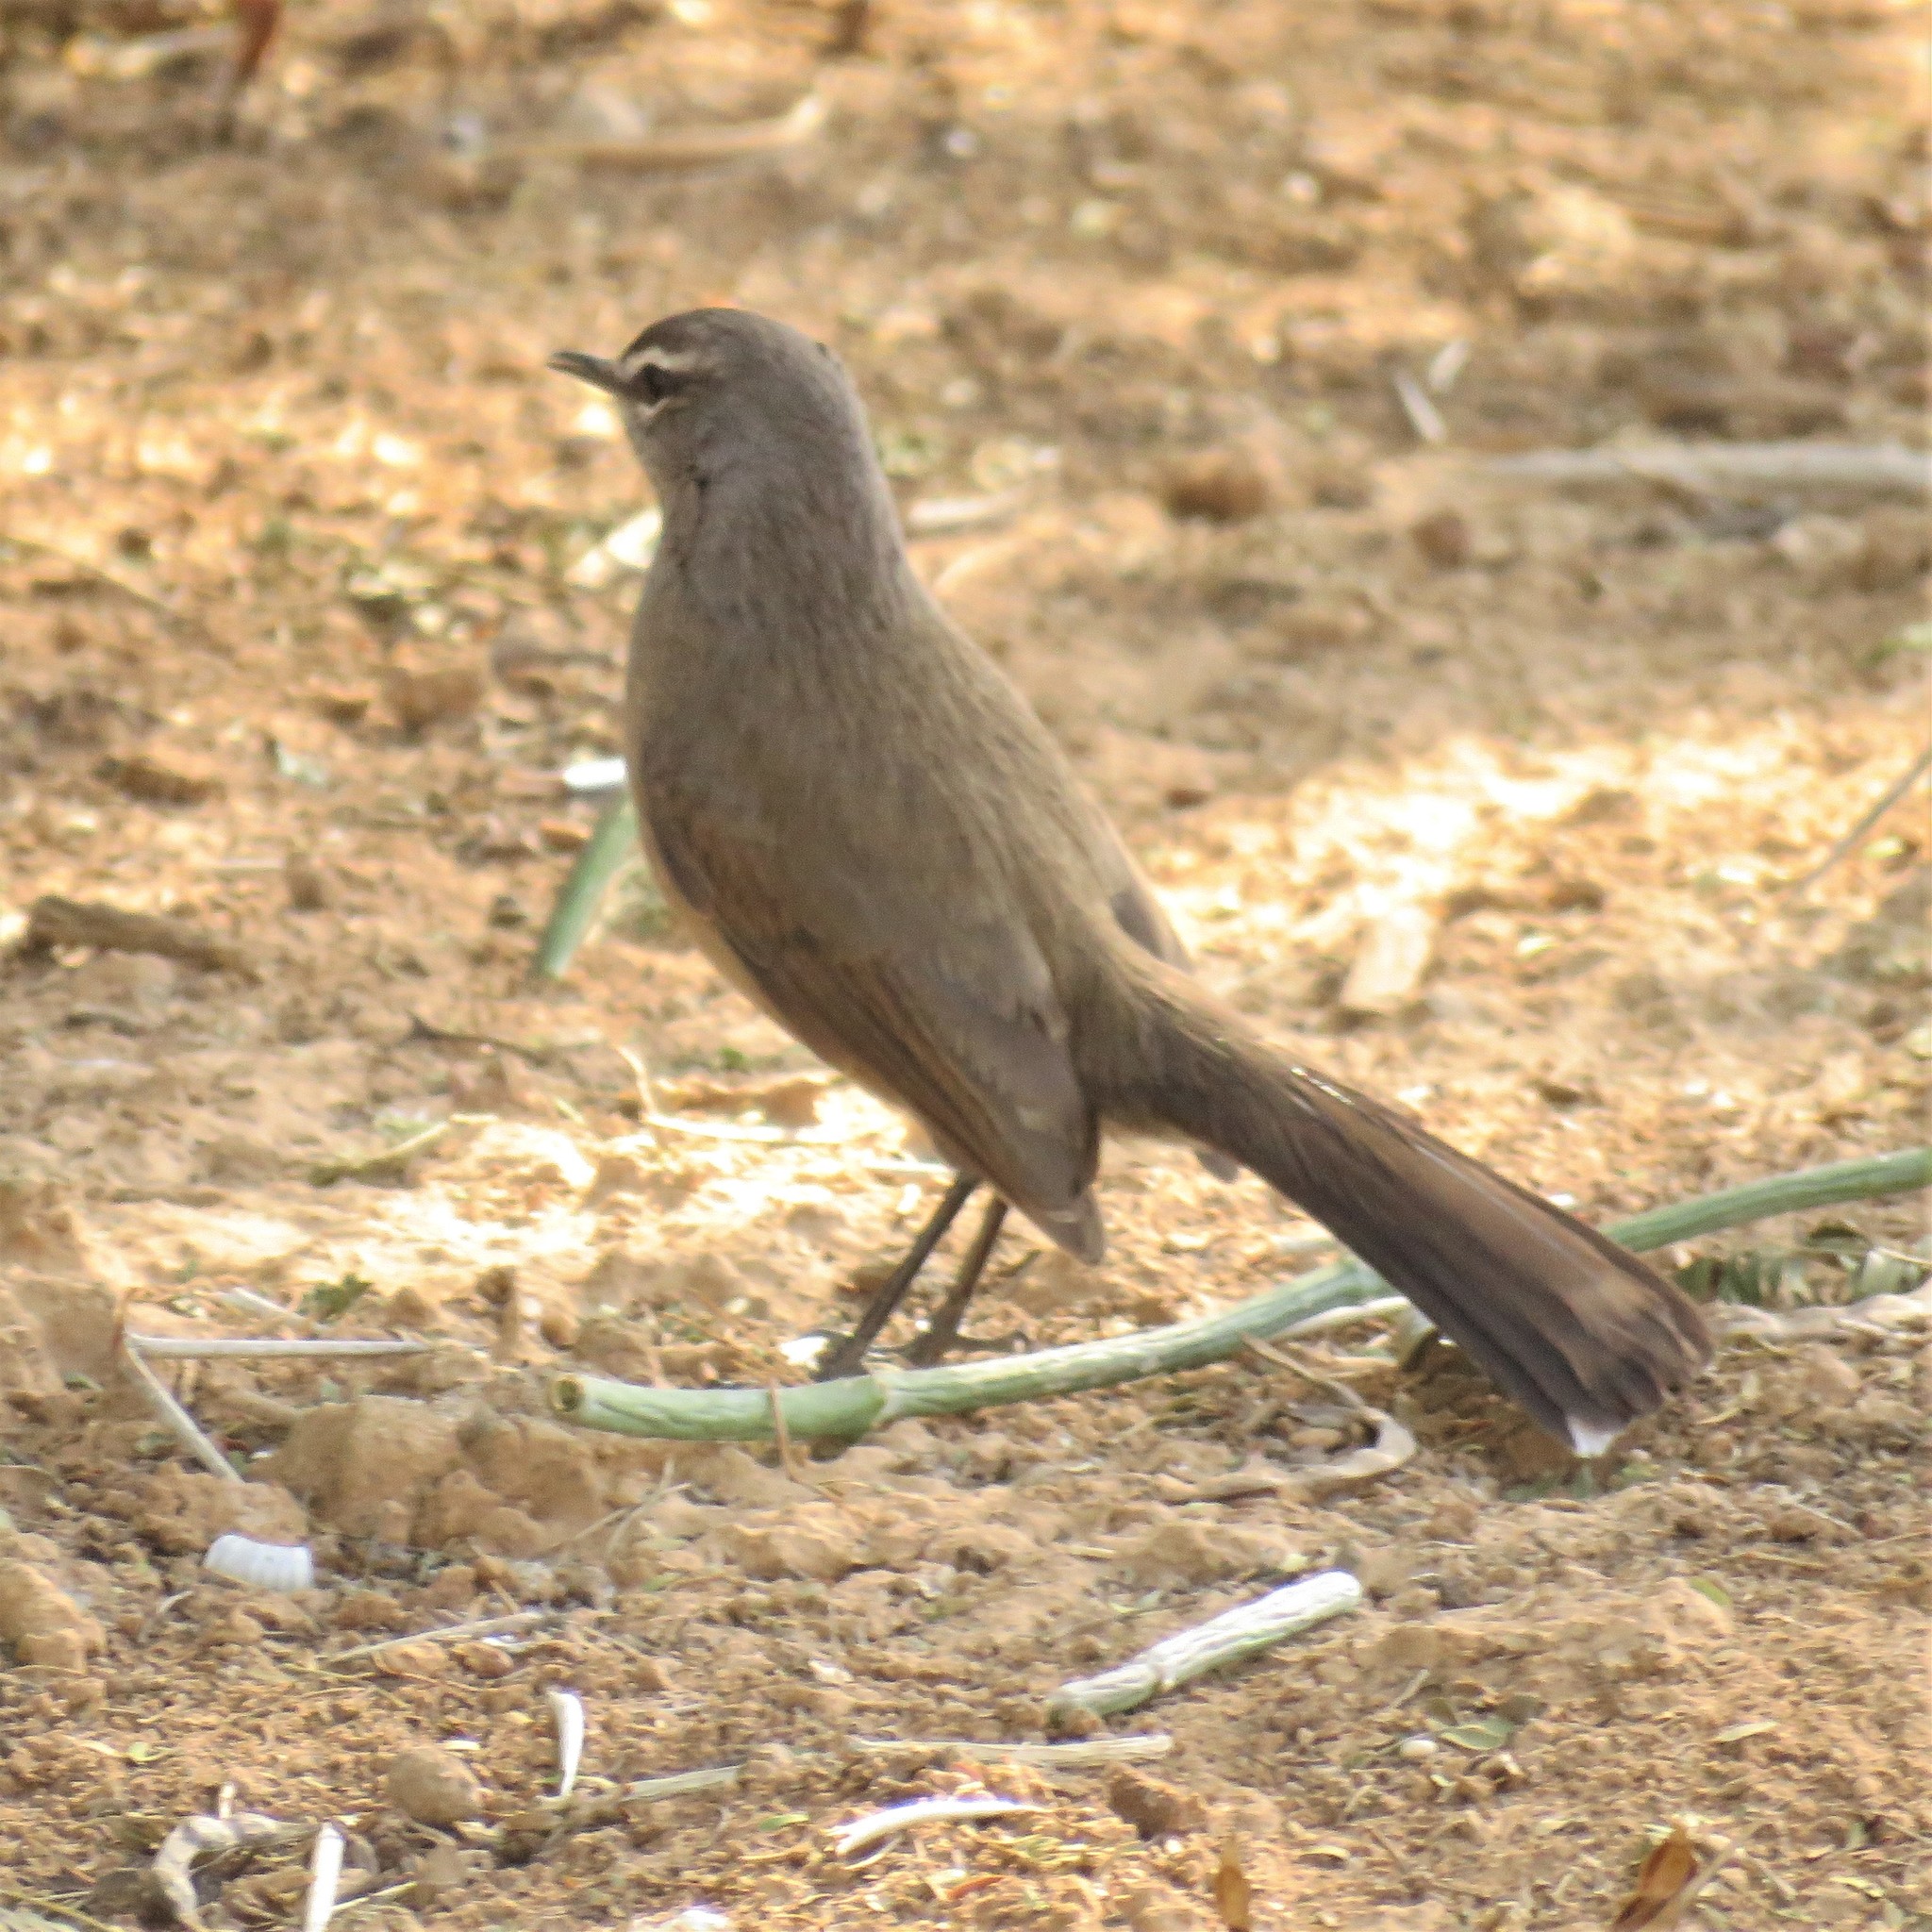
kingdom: Animalia
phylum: Chordata
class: Aves
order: Passeriformes
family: Muscicapidae
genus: Erythropygia
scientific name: Erythropygia coryphoeus
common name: Karoo scrub robin
